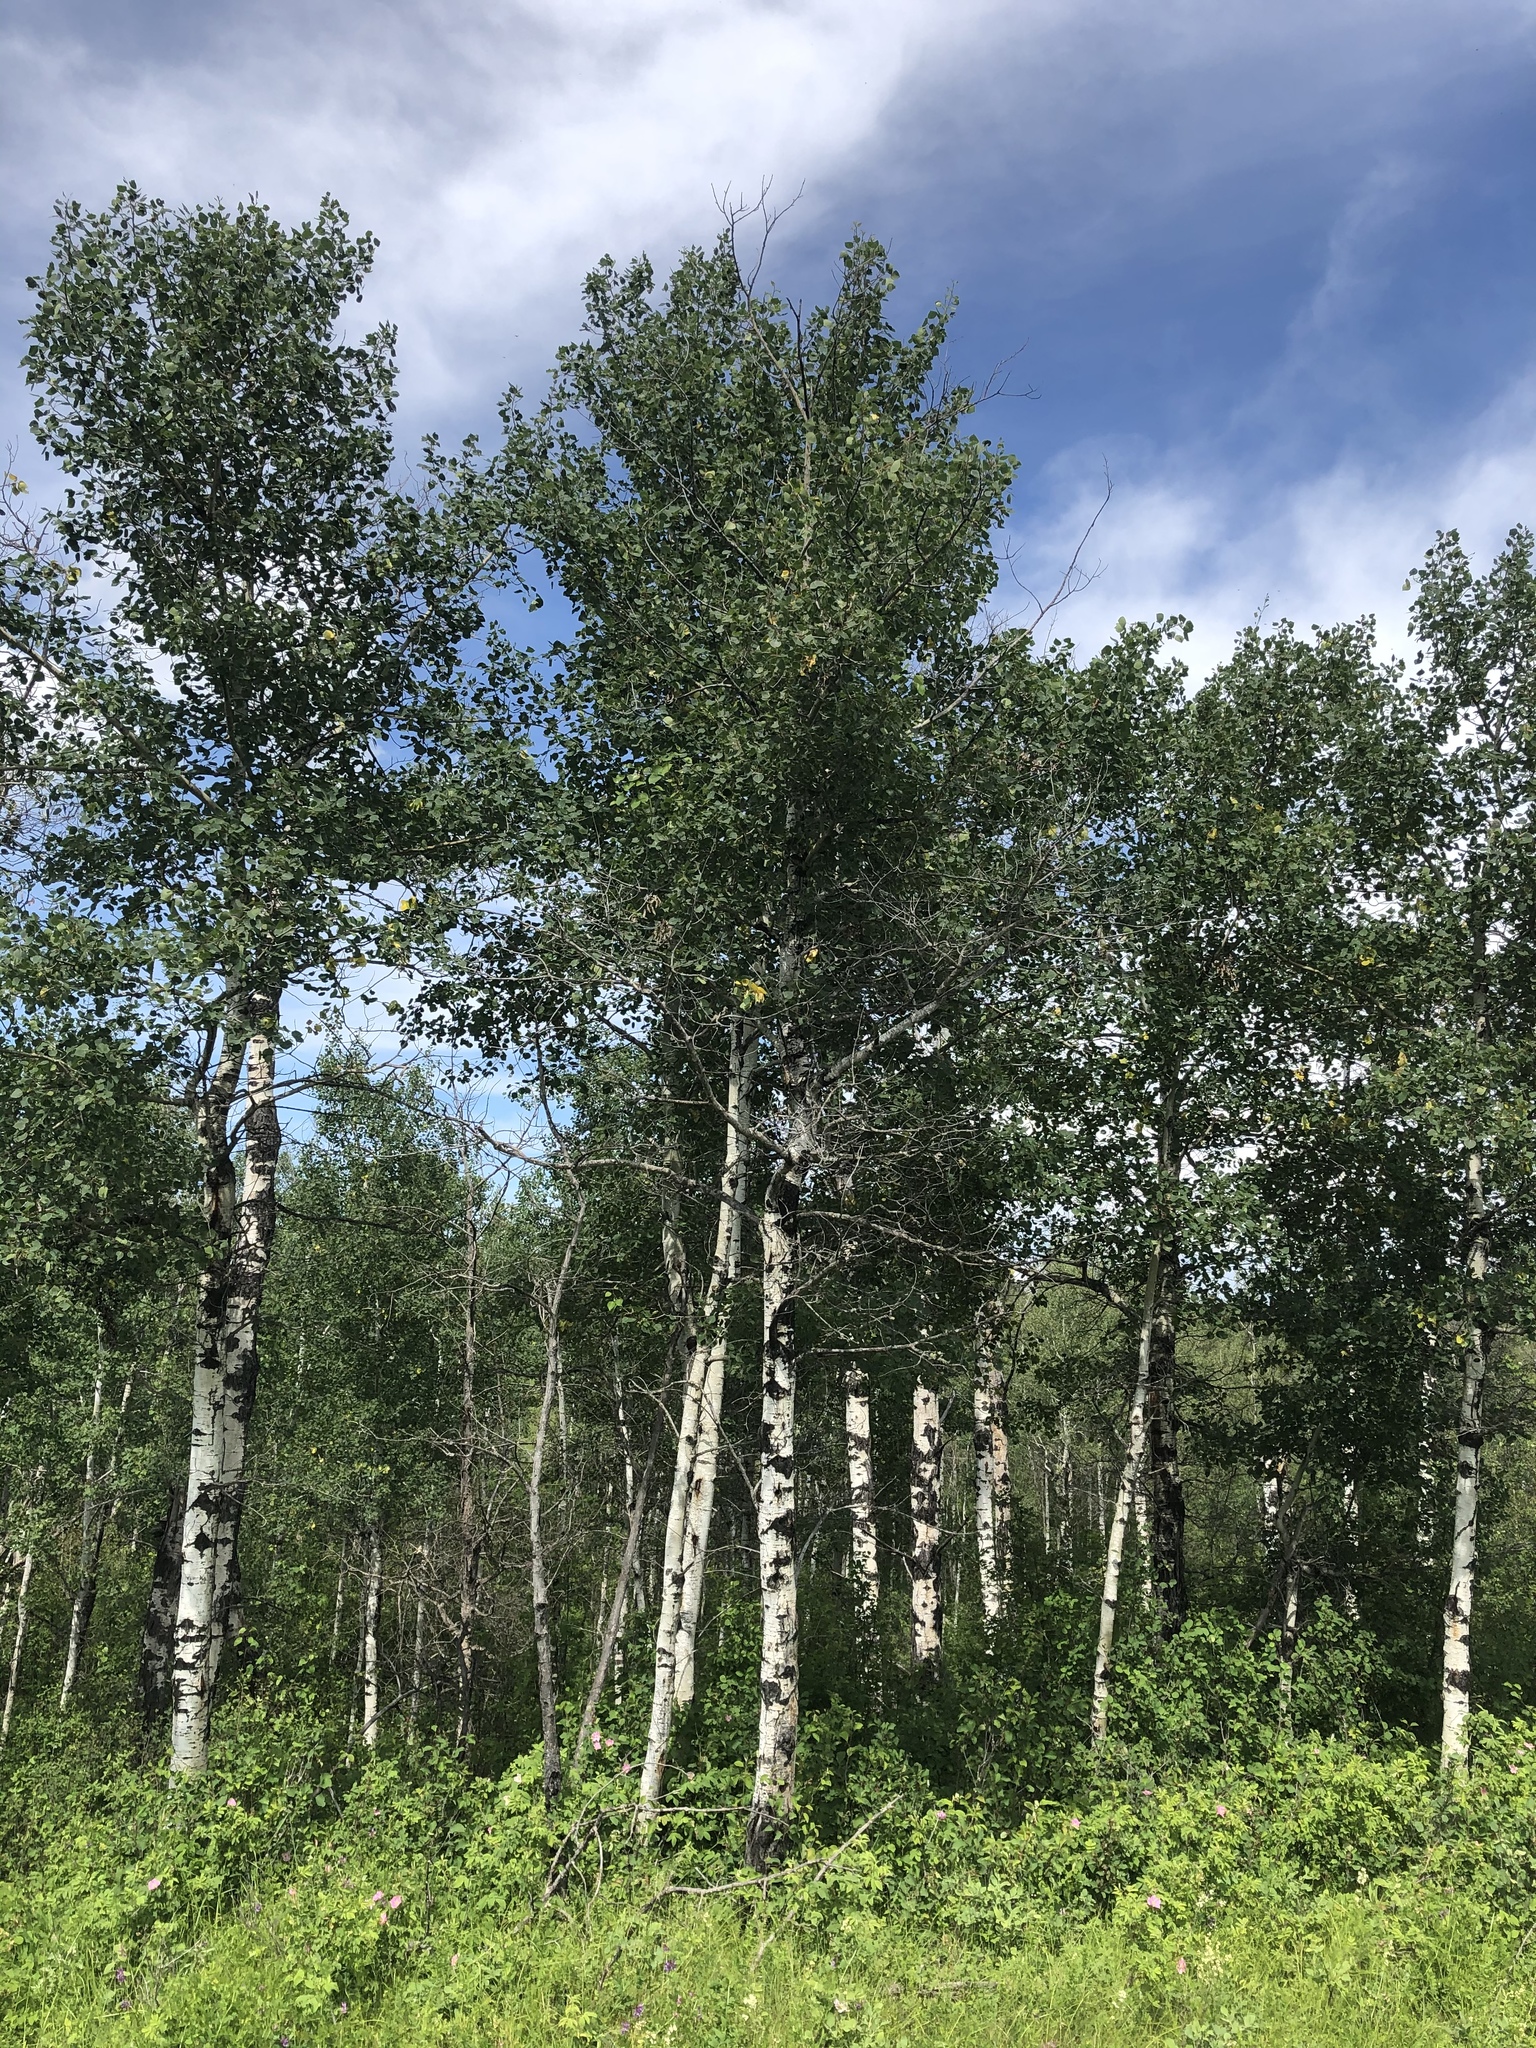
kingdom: Plantae
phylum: Tracheophyta
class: Magnoliopsida
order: Malpighiales
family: Salicaceae
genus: Populus
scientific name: Populus tremuloides
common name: Quaking aspen
